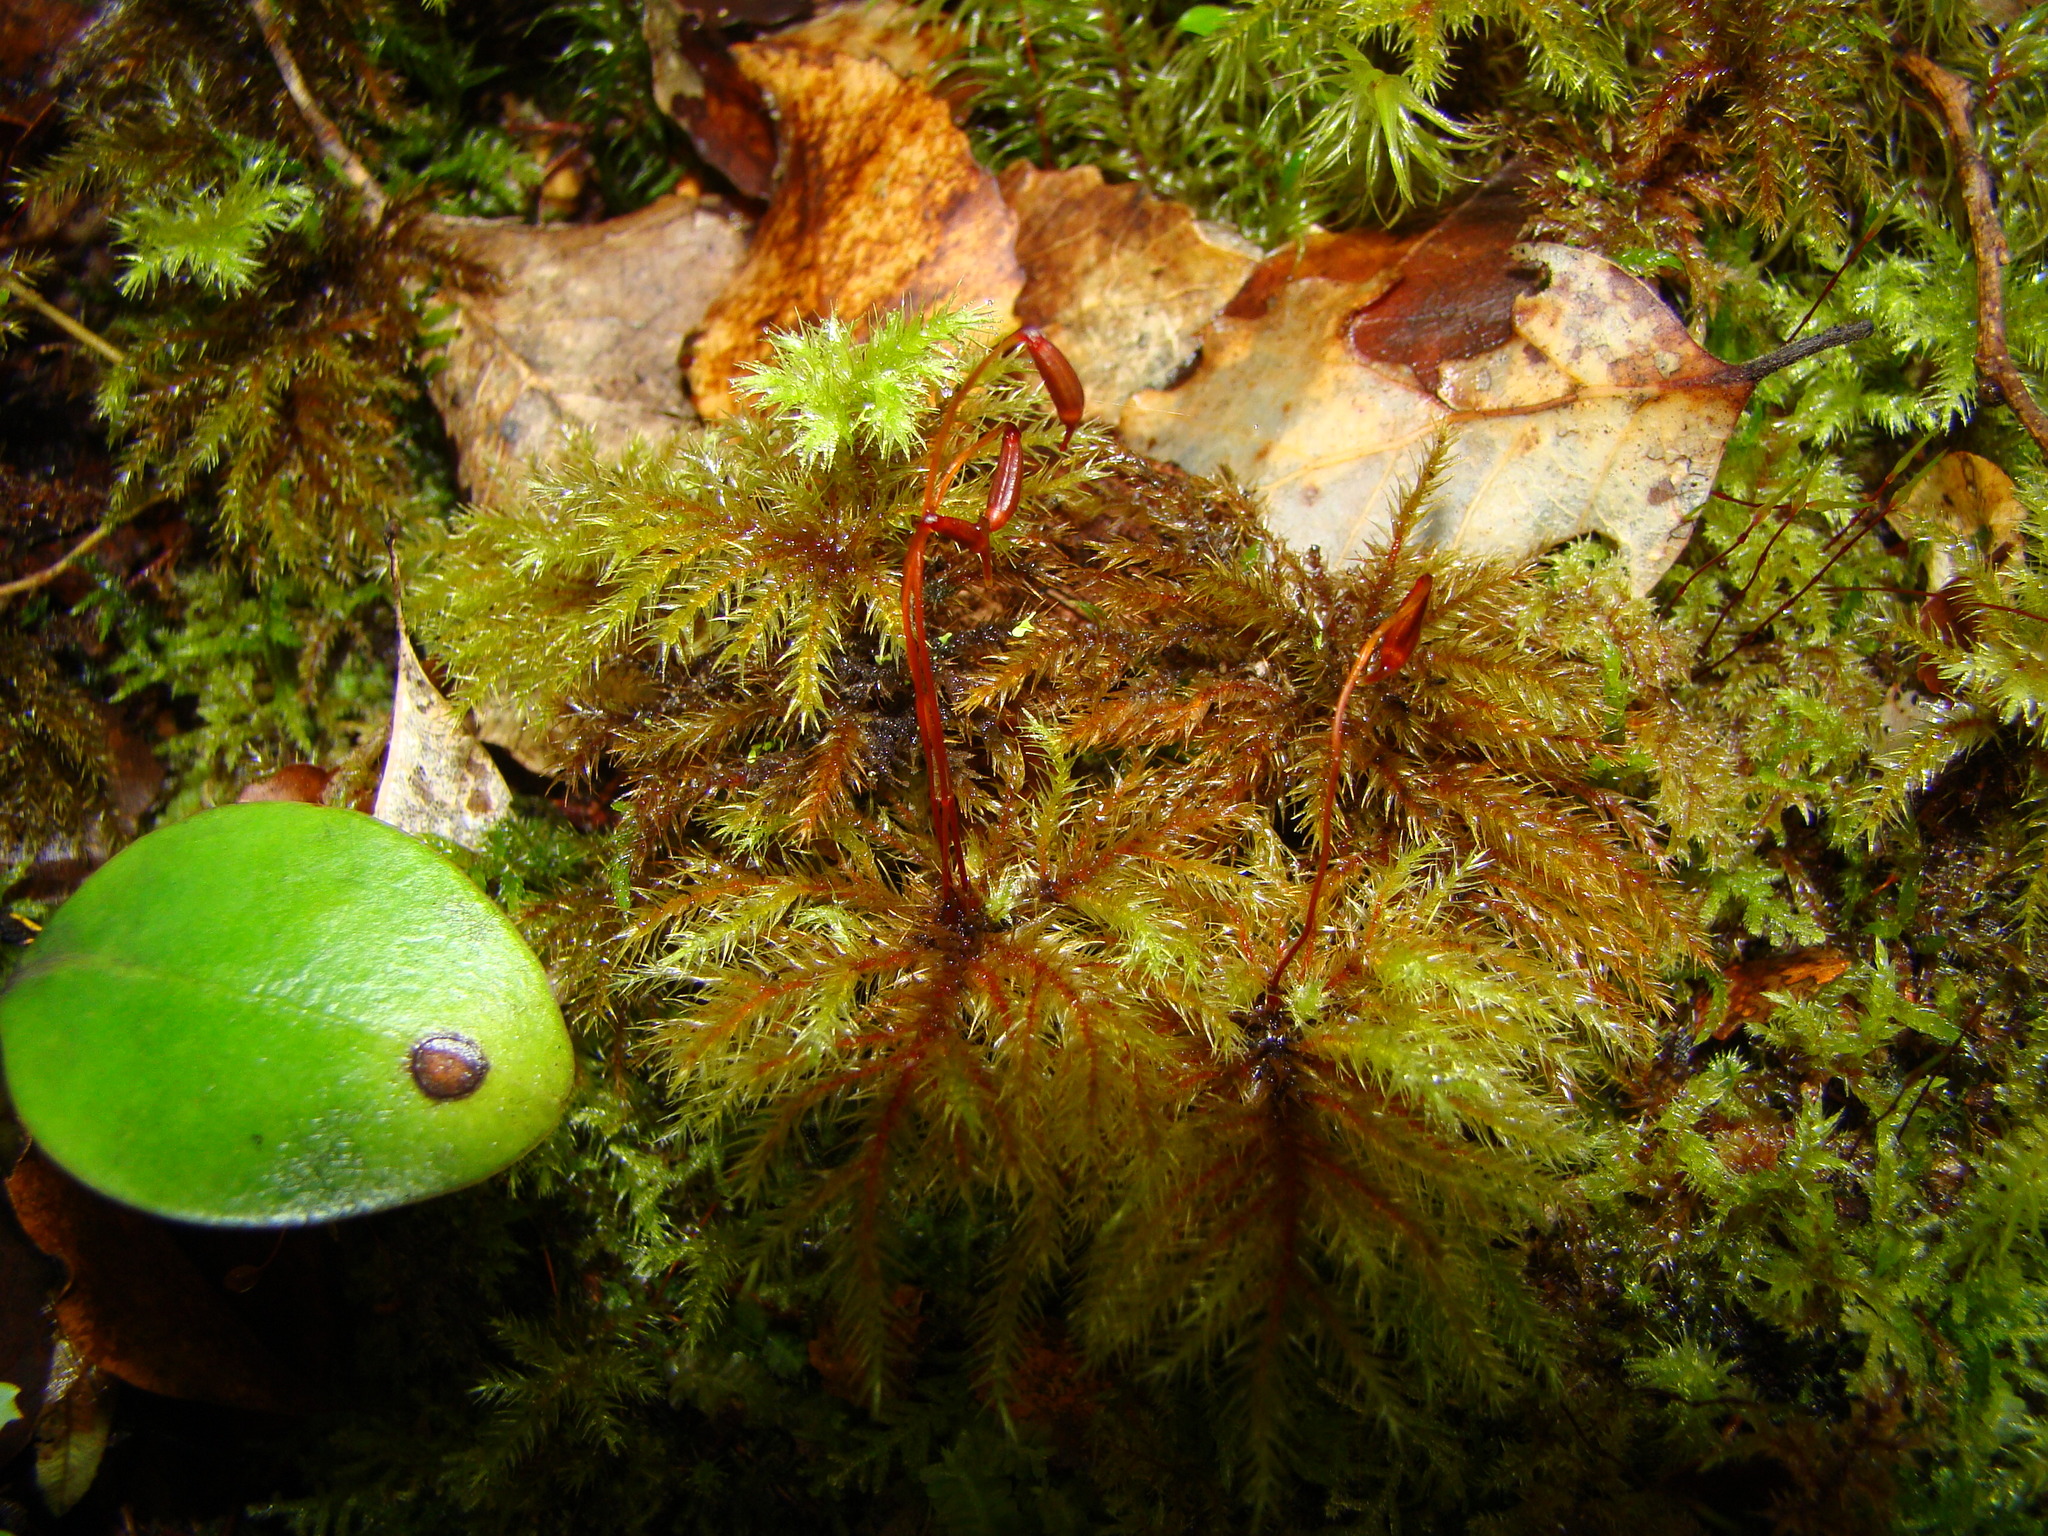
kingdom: Plantae
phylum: Bryophyta
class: Bryopsida
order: Hypnodendrales
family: Spiridentaceae
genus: Hypnodendron
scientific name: Hypnodendron arcuatum
